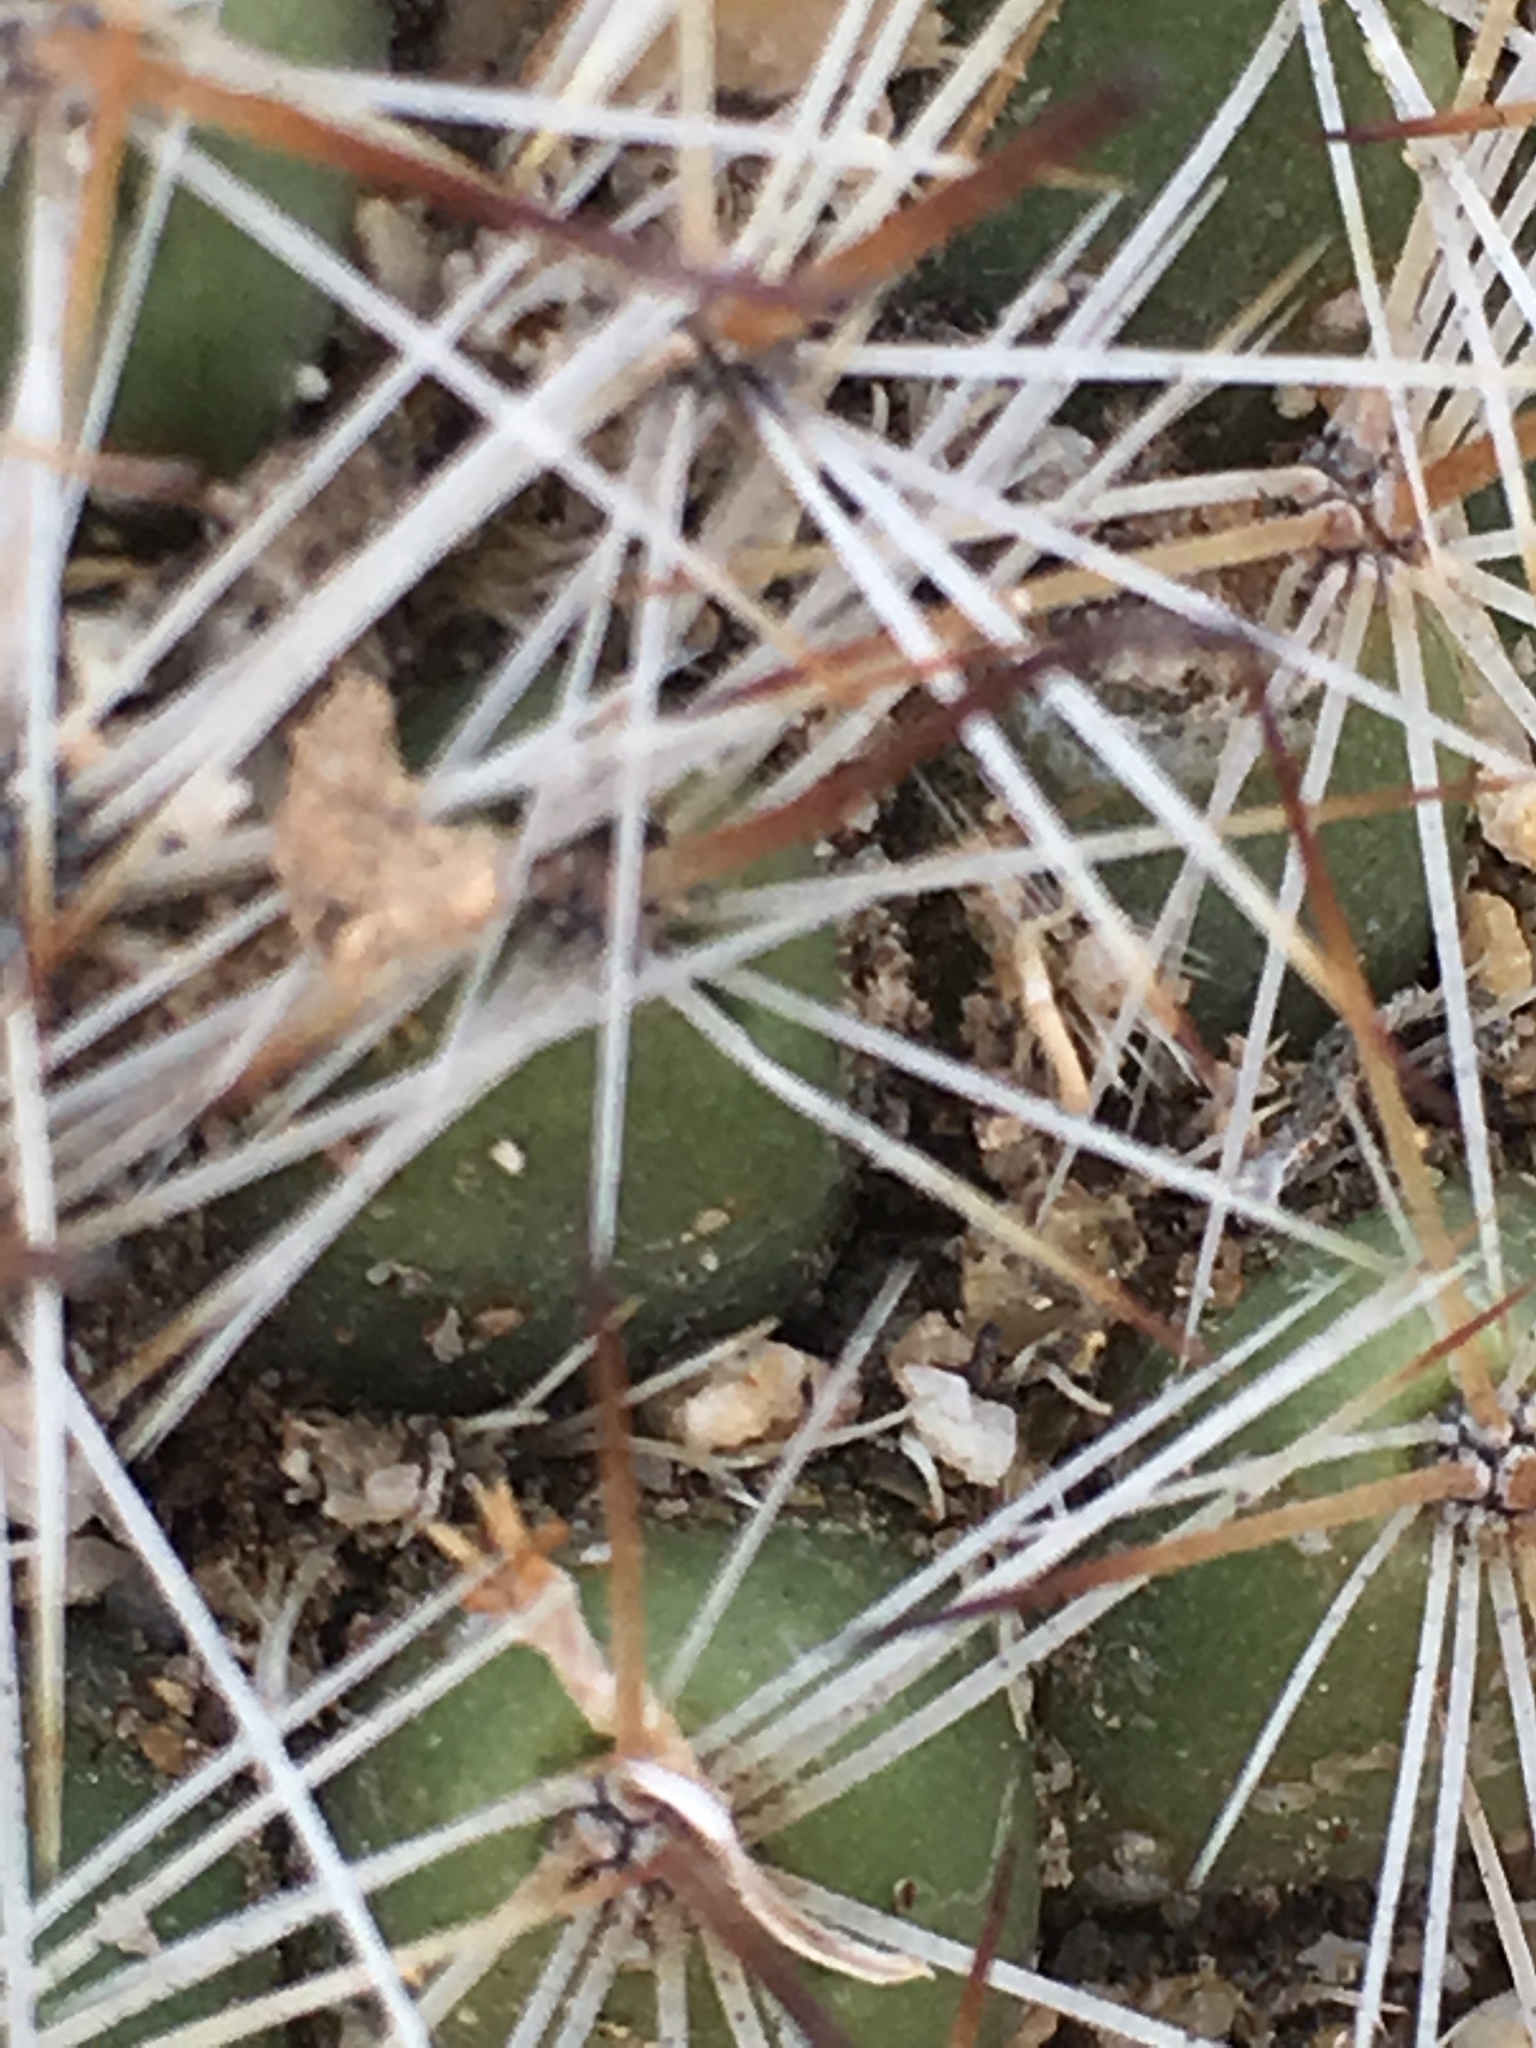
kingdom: Plantae
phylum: Tracheophyta
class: Magnoliopsida
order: Caryophyllales
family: Cactaceae
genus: Cochemiea
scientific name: Cochemiea dioica
